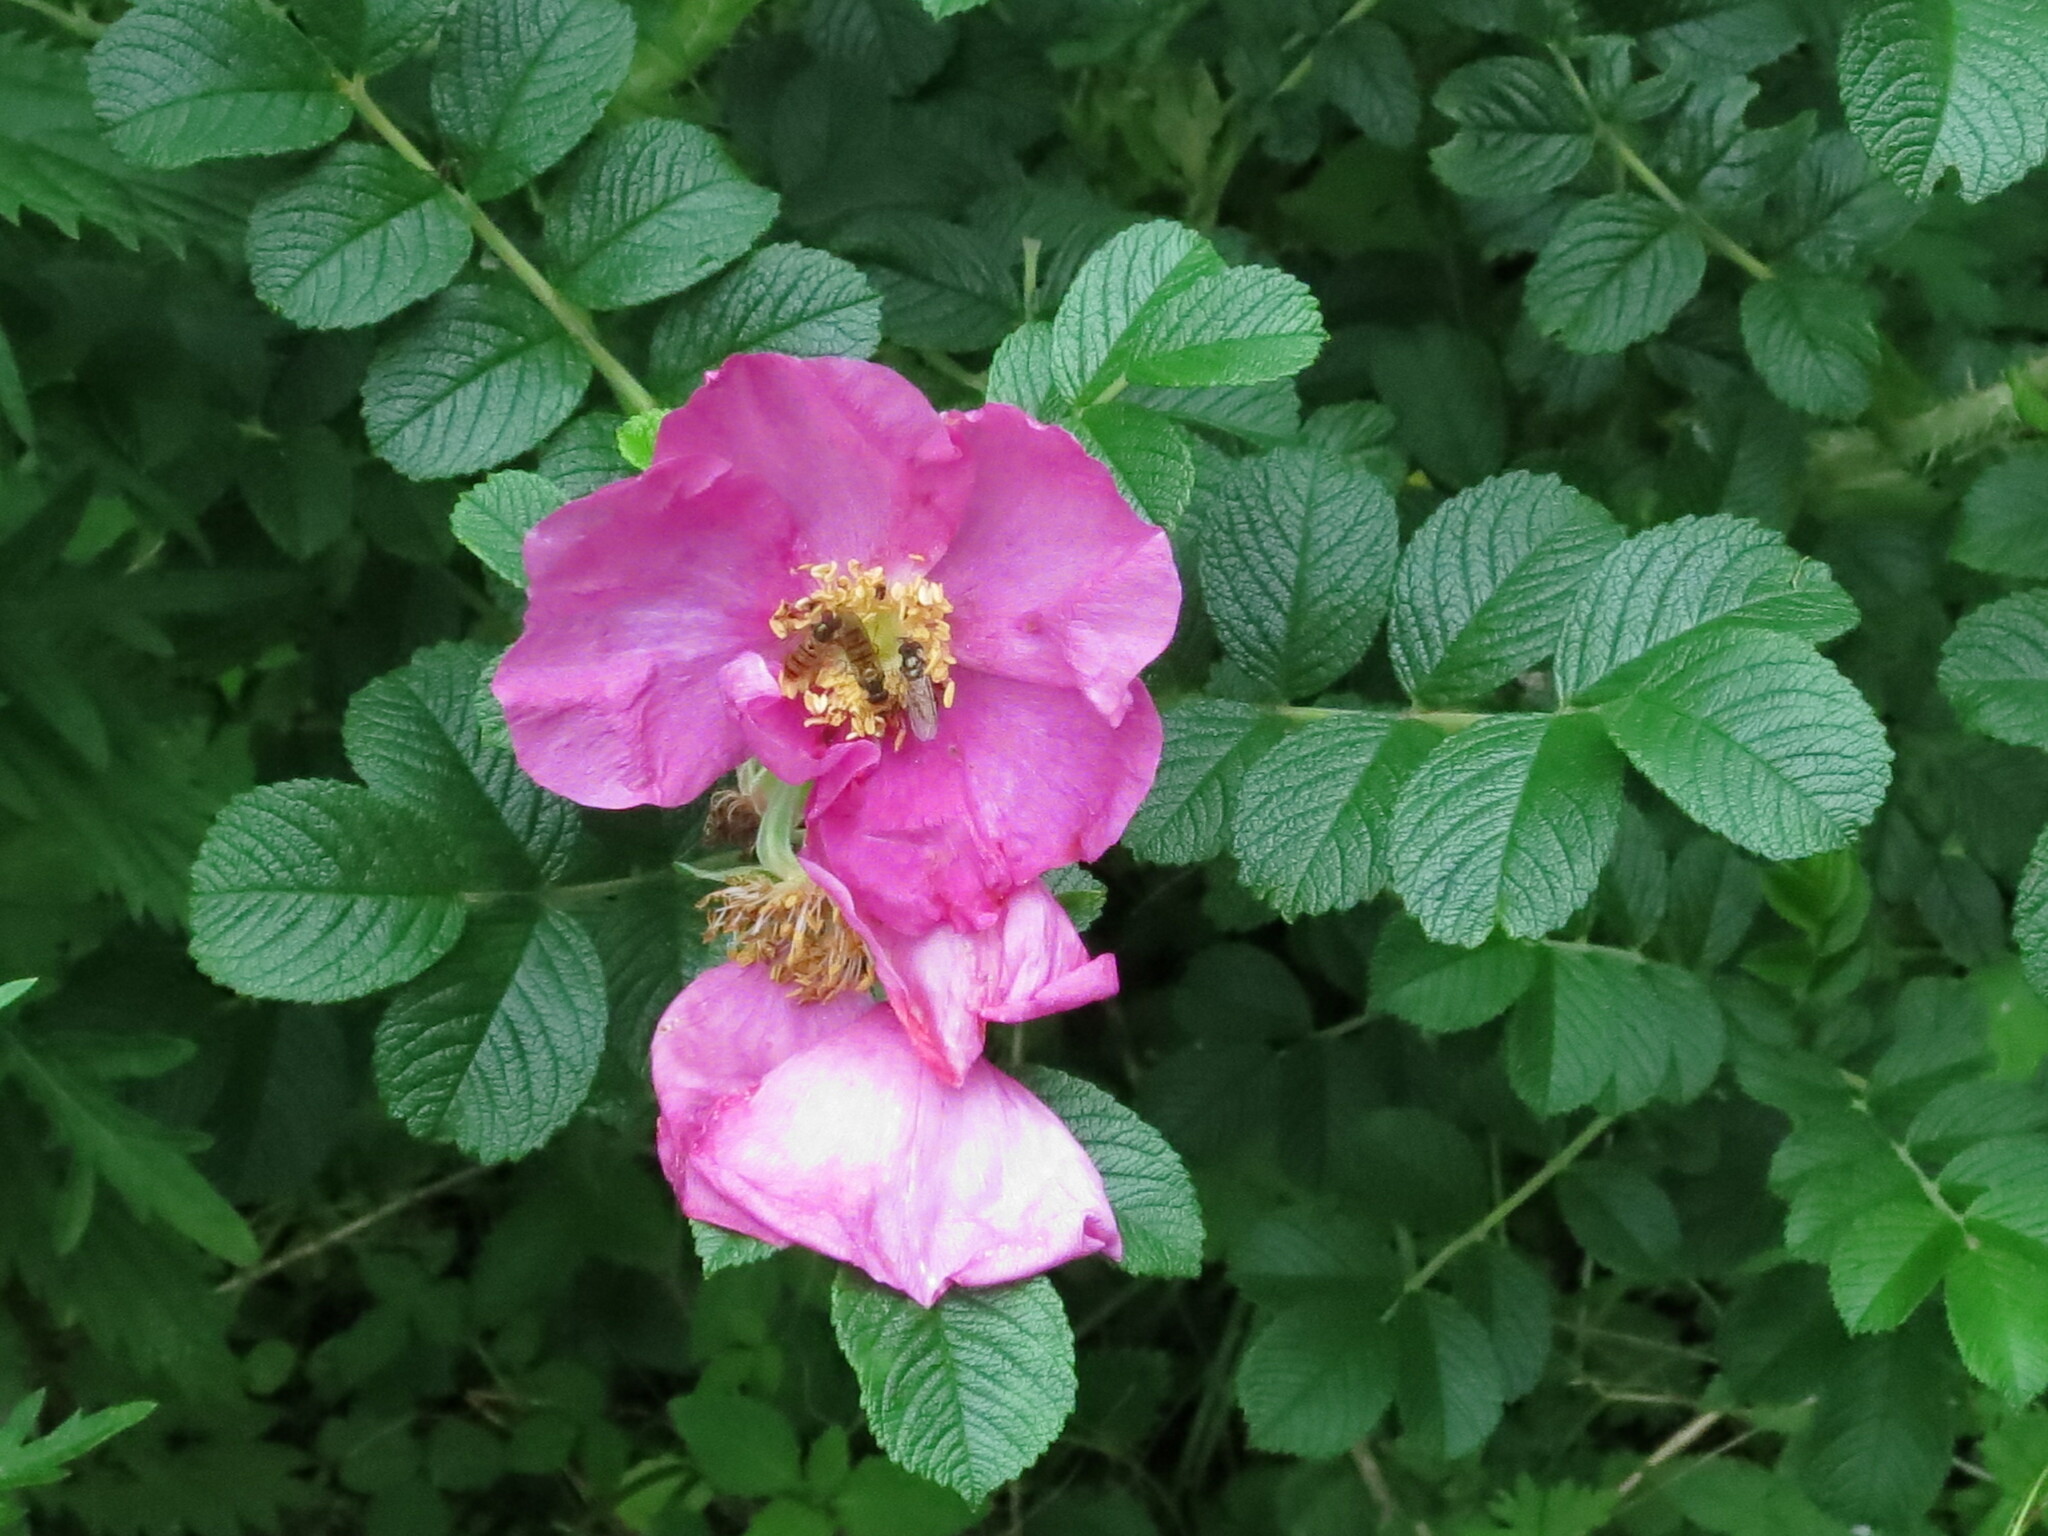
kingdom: Plantae
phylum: Tracheophyta
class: Magnoliopsida
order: Rosales
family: Rosaceae
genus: Rosa
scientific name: Rosa rugosa
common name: Japanese rose
